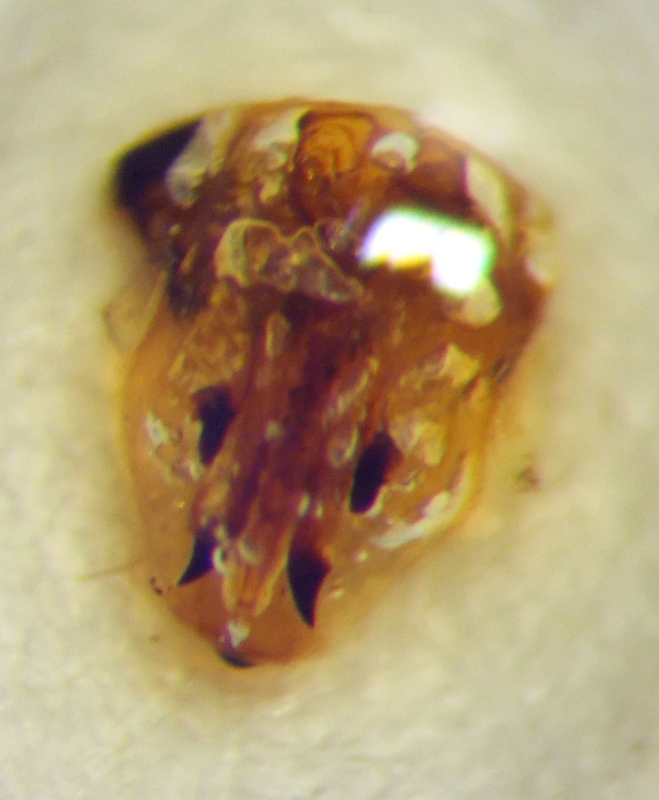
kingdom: Animalia
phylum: Arthropoda
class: Insecta
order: Hemiptera
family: Scutelleridae
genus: Odontotarsus
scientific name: Odontotarsus purpureolineatus
